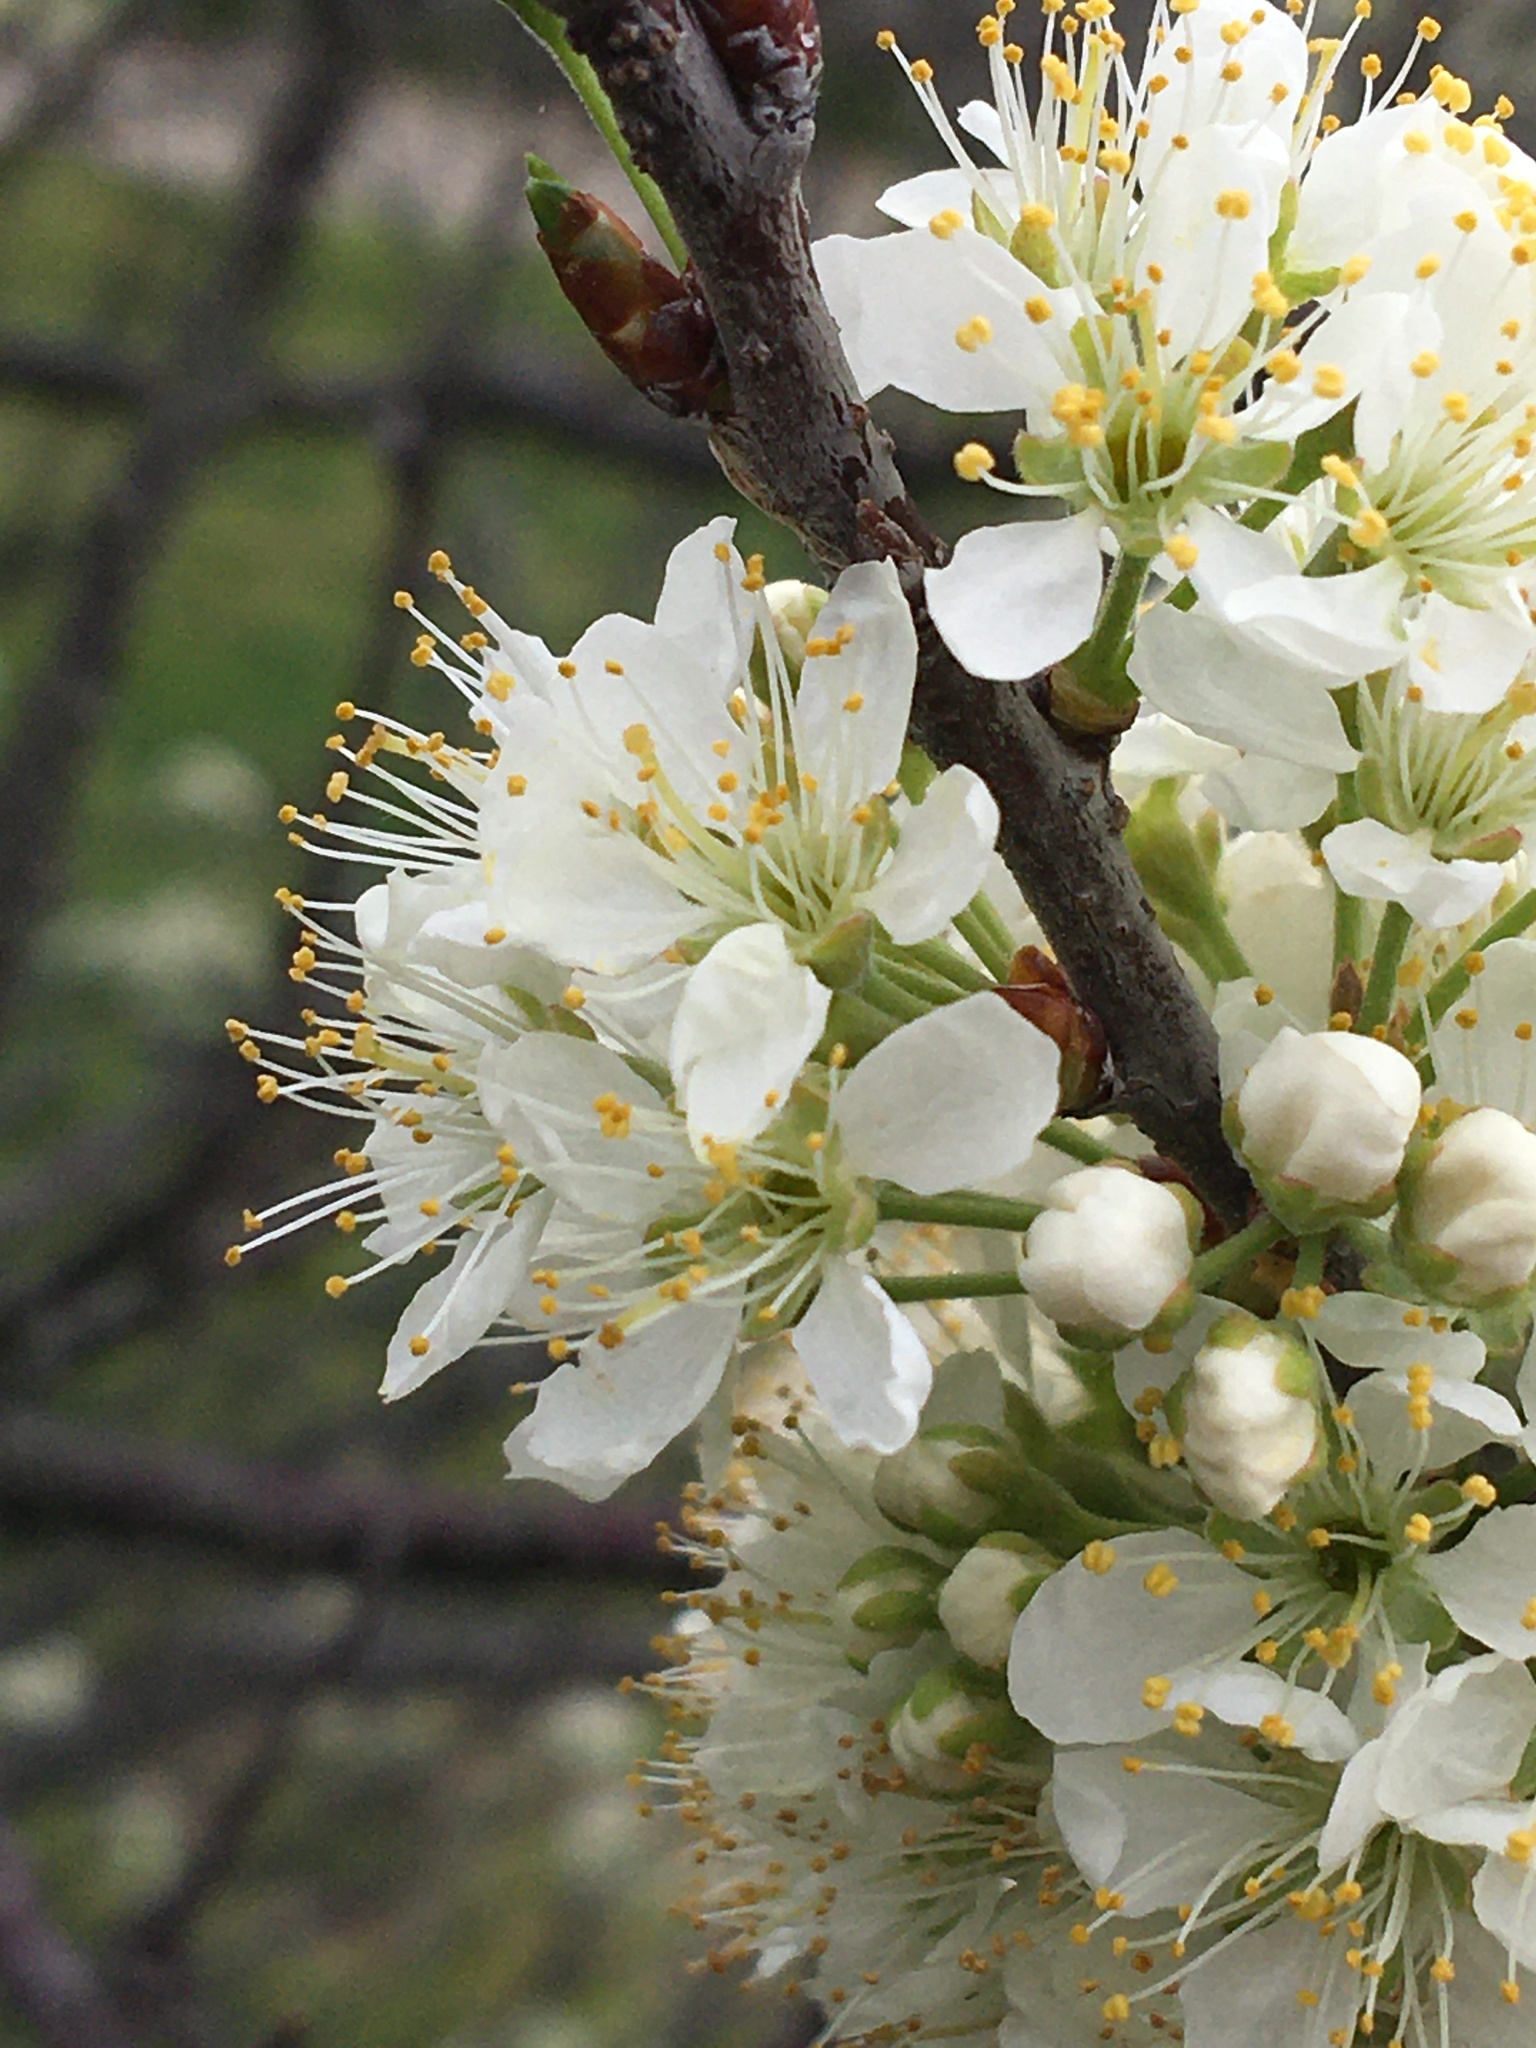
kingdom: Plantae
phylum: Tracheophyta
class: Magnoliopsida
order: Rosales
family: Rosaceae
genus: Prunus
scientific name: Prunus maritima
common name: Beach plum
